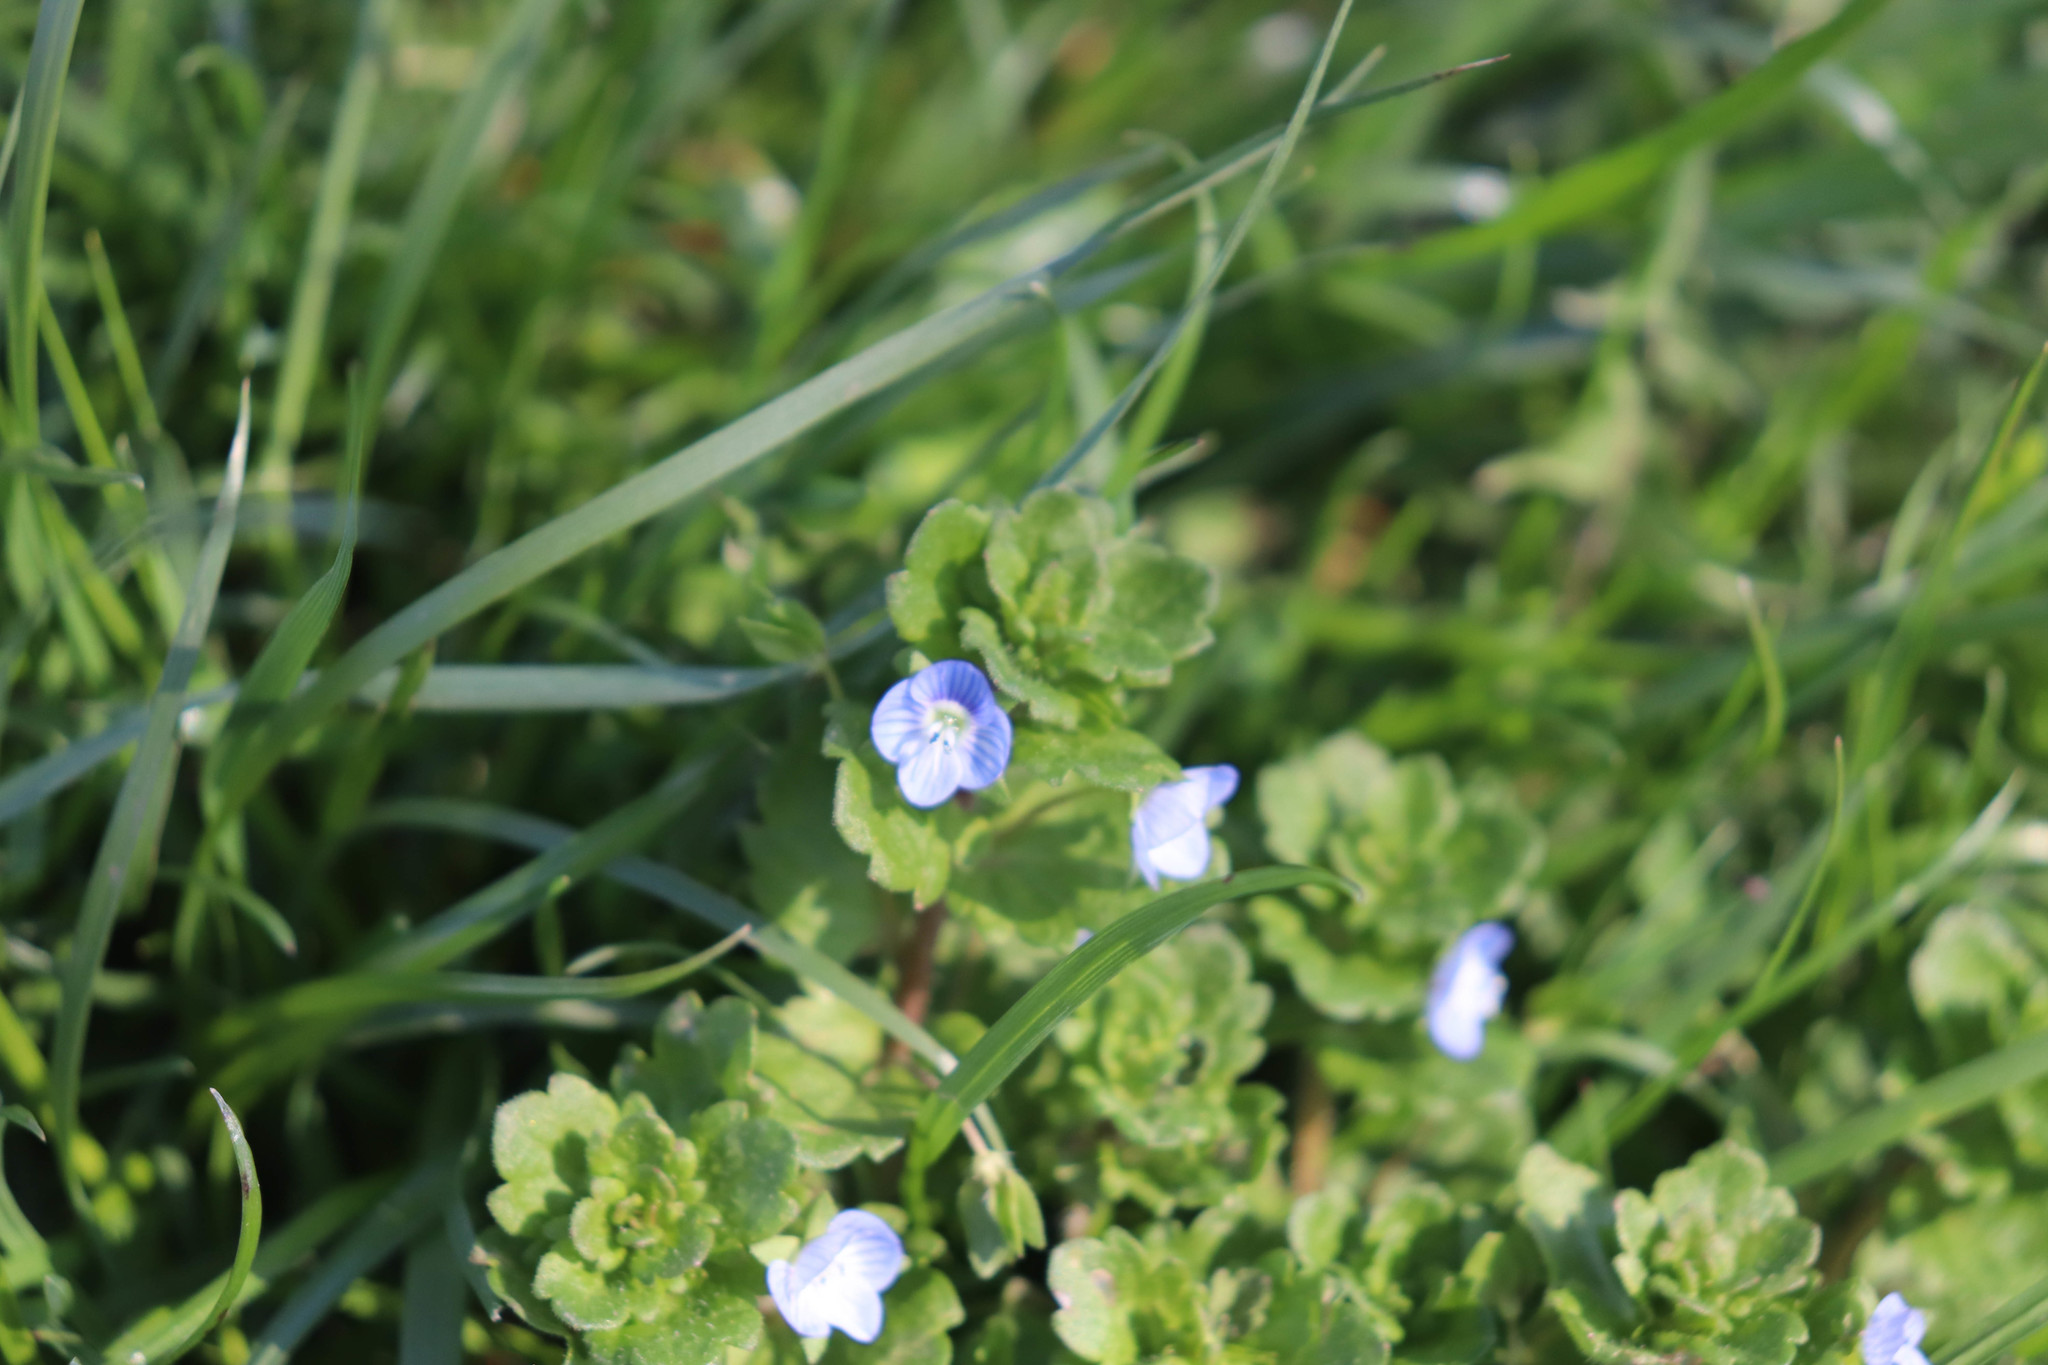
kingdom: Plantae
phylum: Tracheophyta
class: Magnoliopsida
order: Lamiales
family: Plantaginaceae
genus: Veronica
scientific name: Veronica persica
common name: Common field-speedwell
